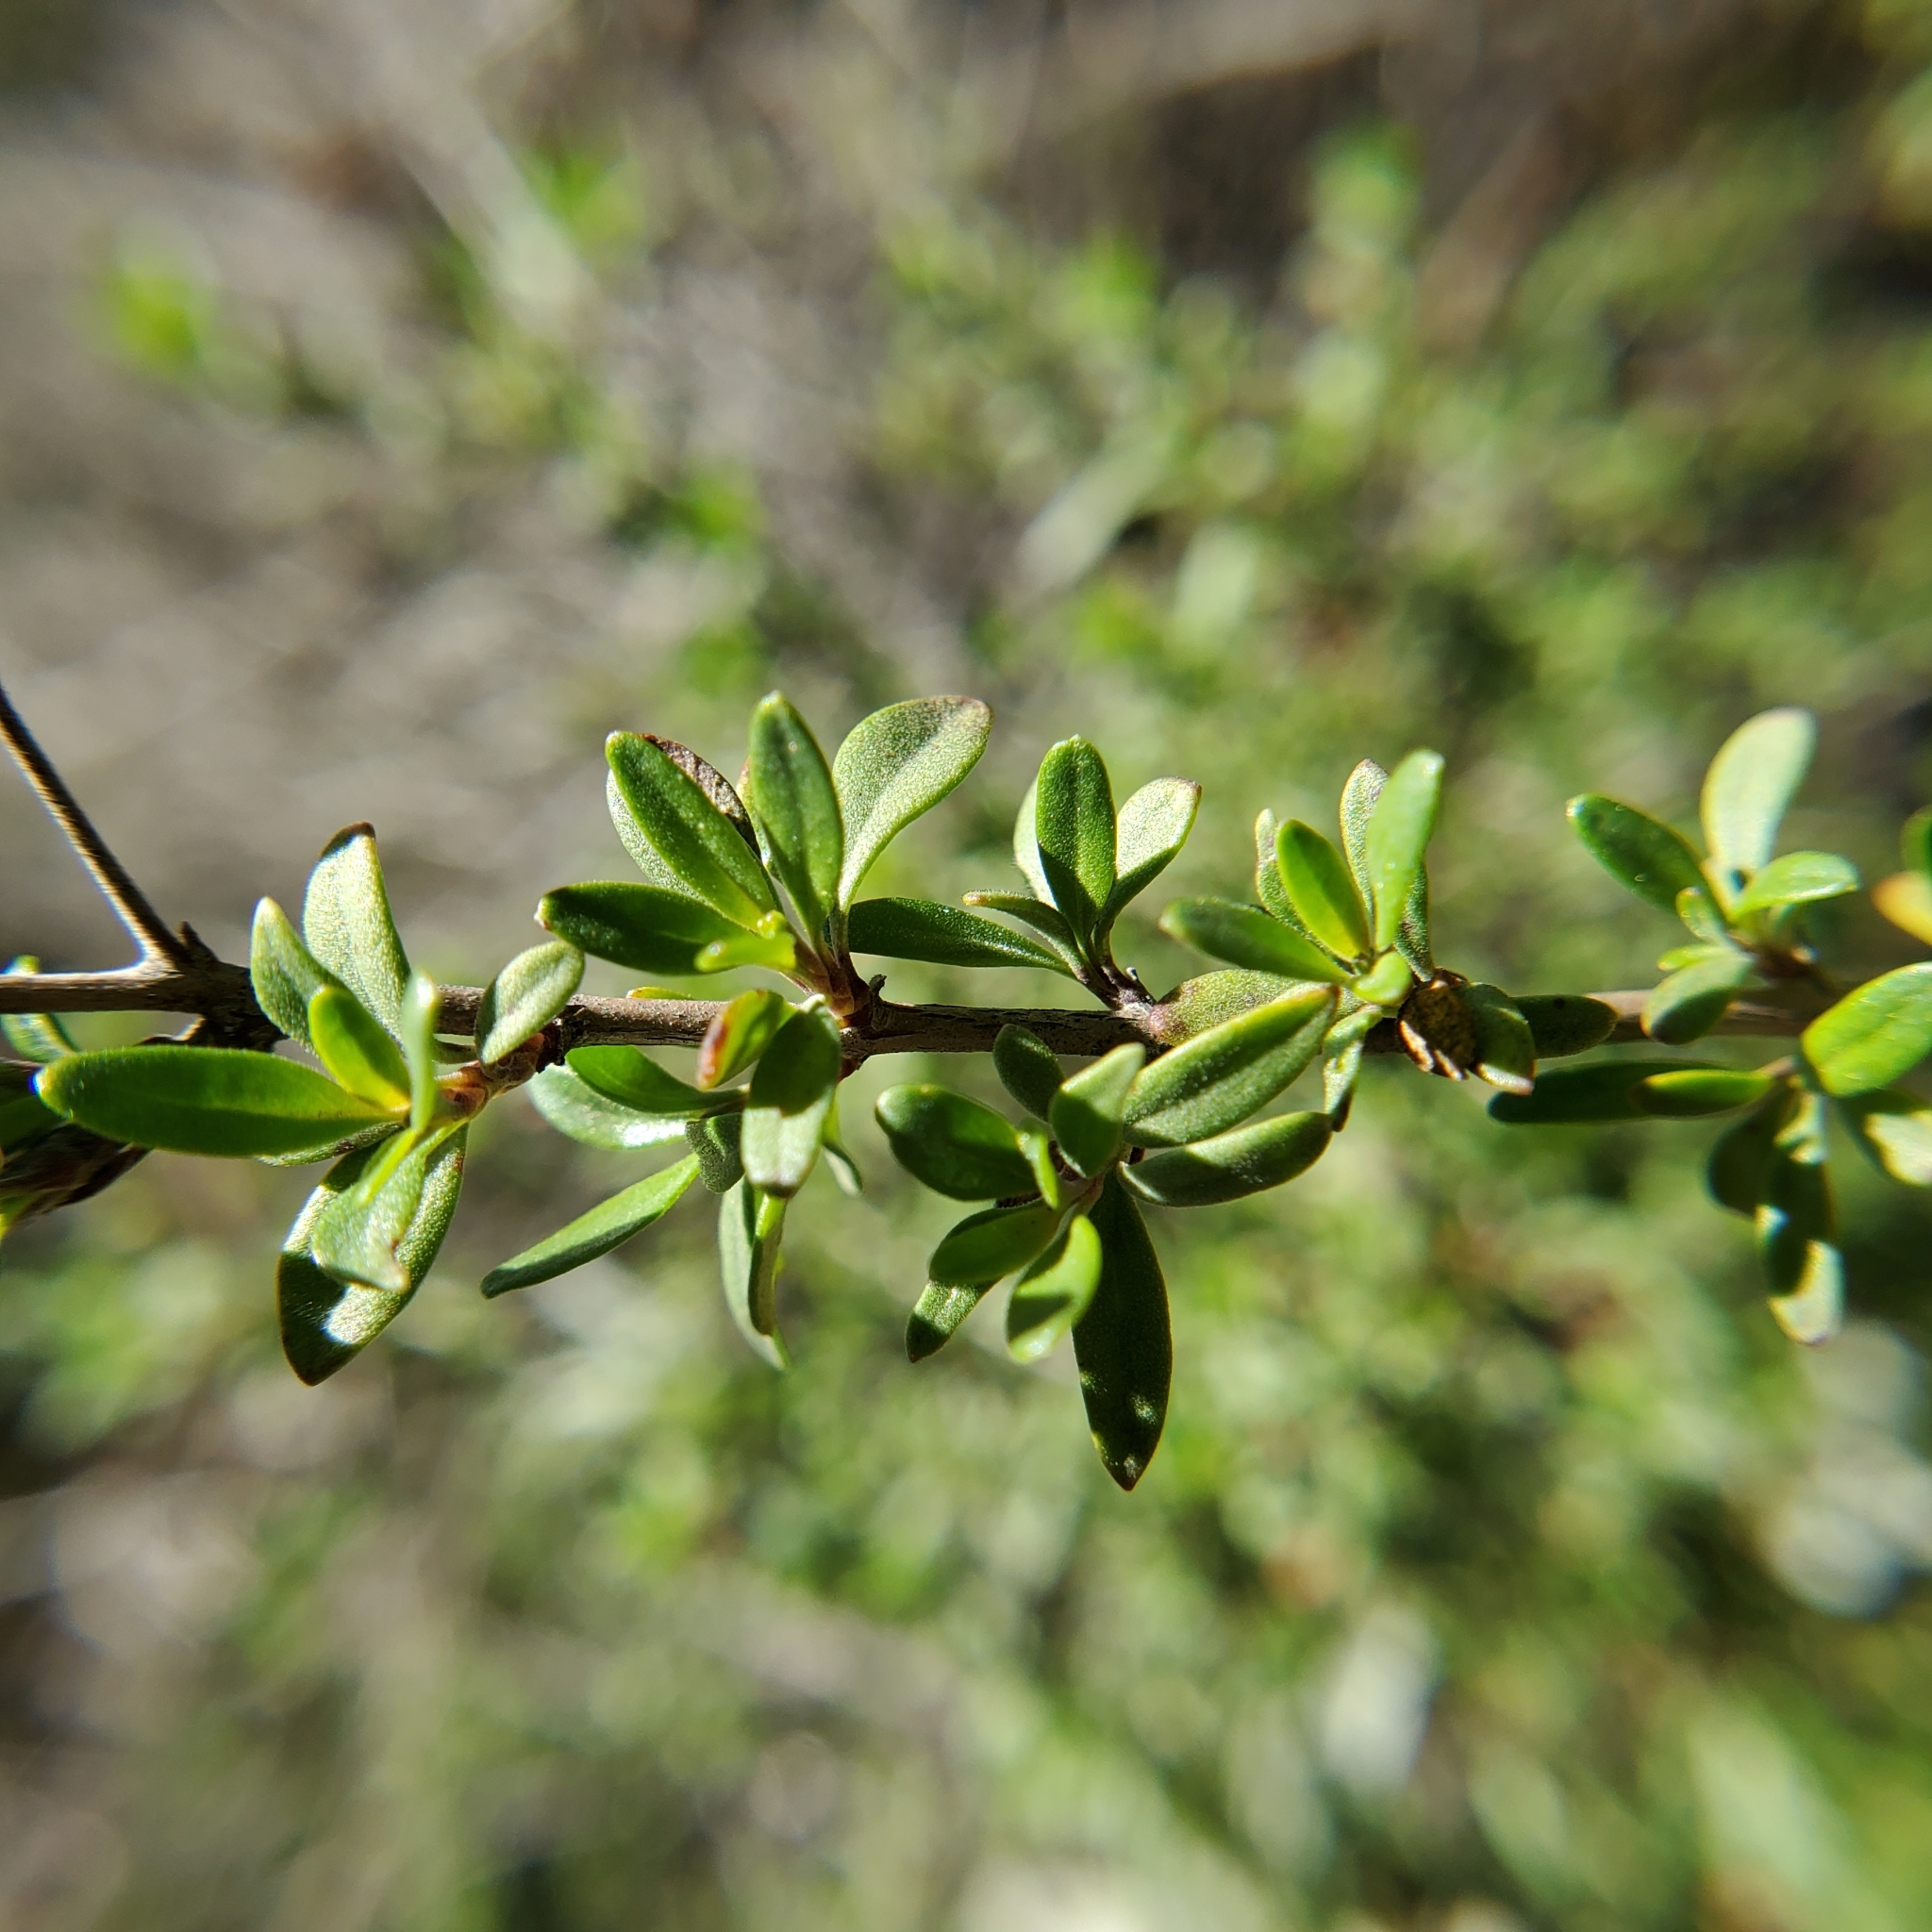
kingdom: Plantae
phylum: Tracheophyta
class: Magnoliopsida
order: Lamiales
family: Plantaginaceae
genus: Keckiella
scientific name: Keckiella antirrhinoides
